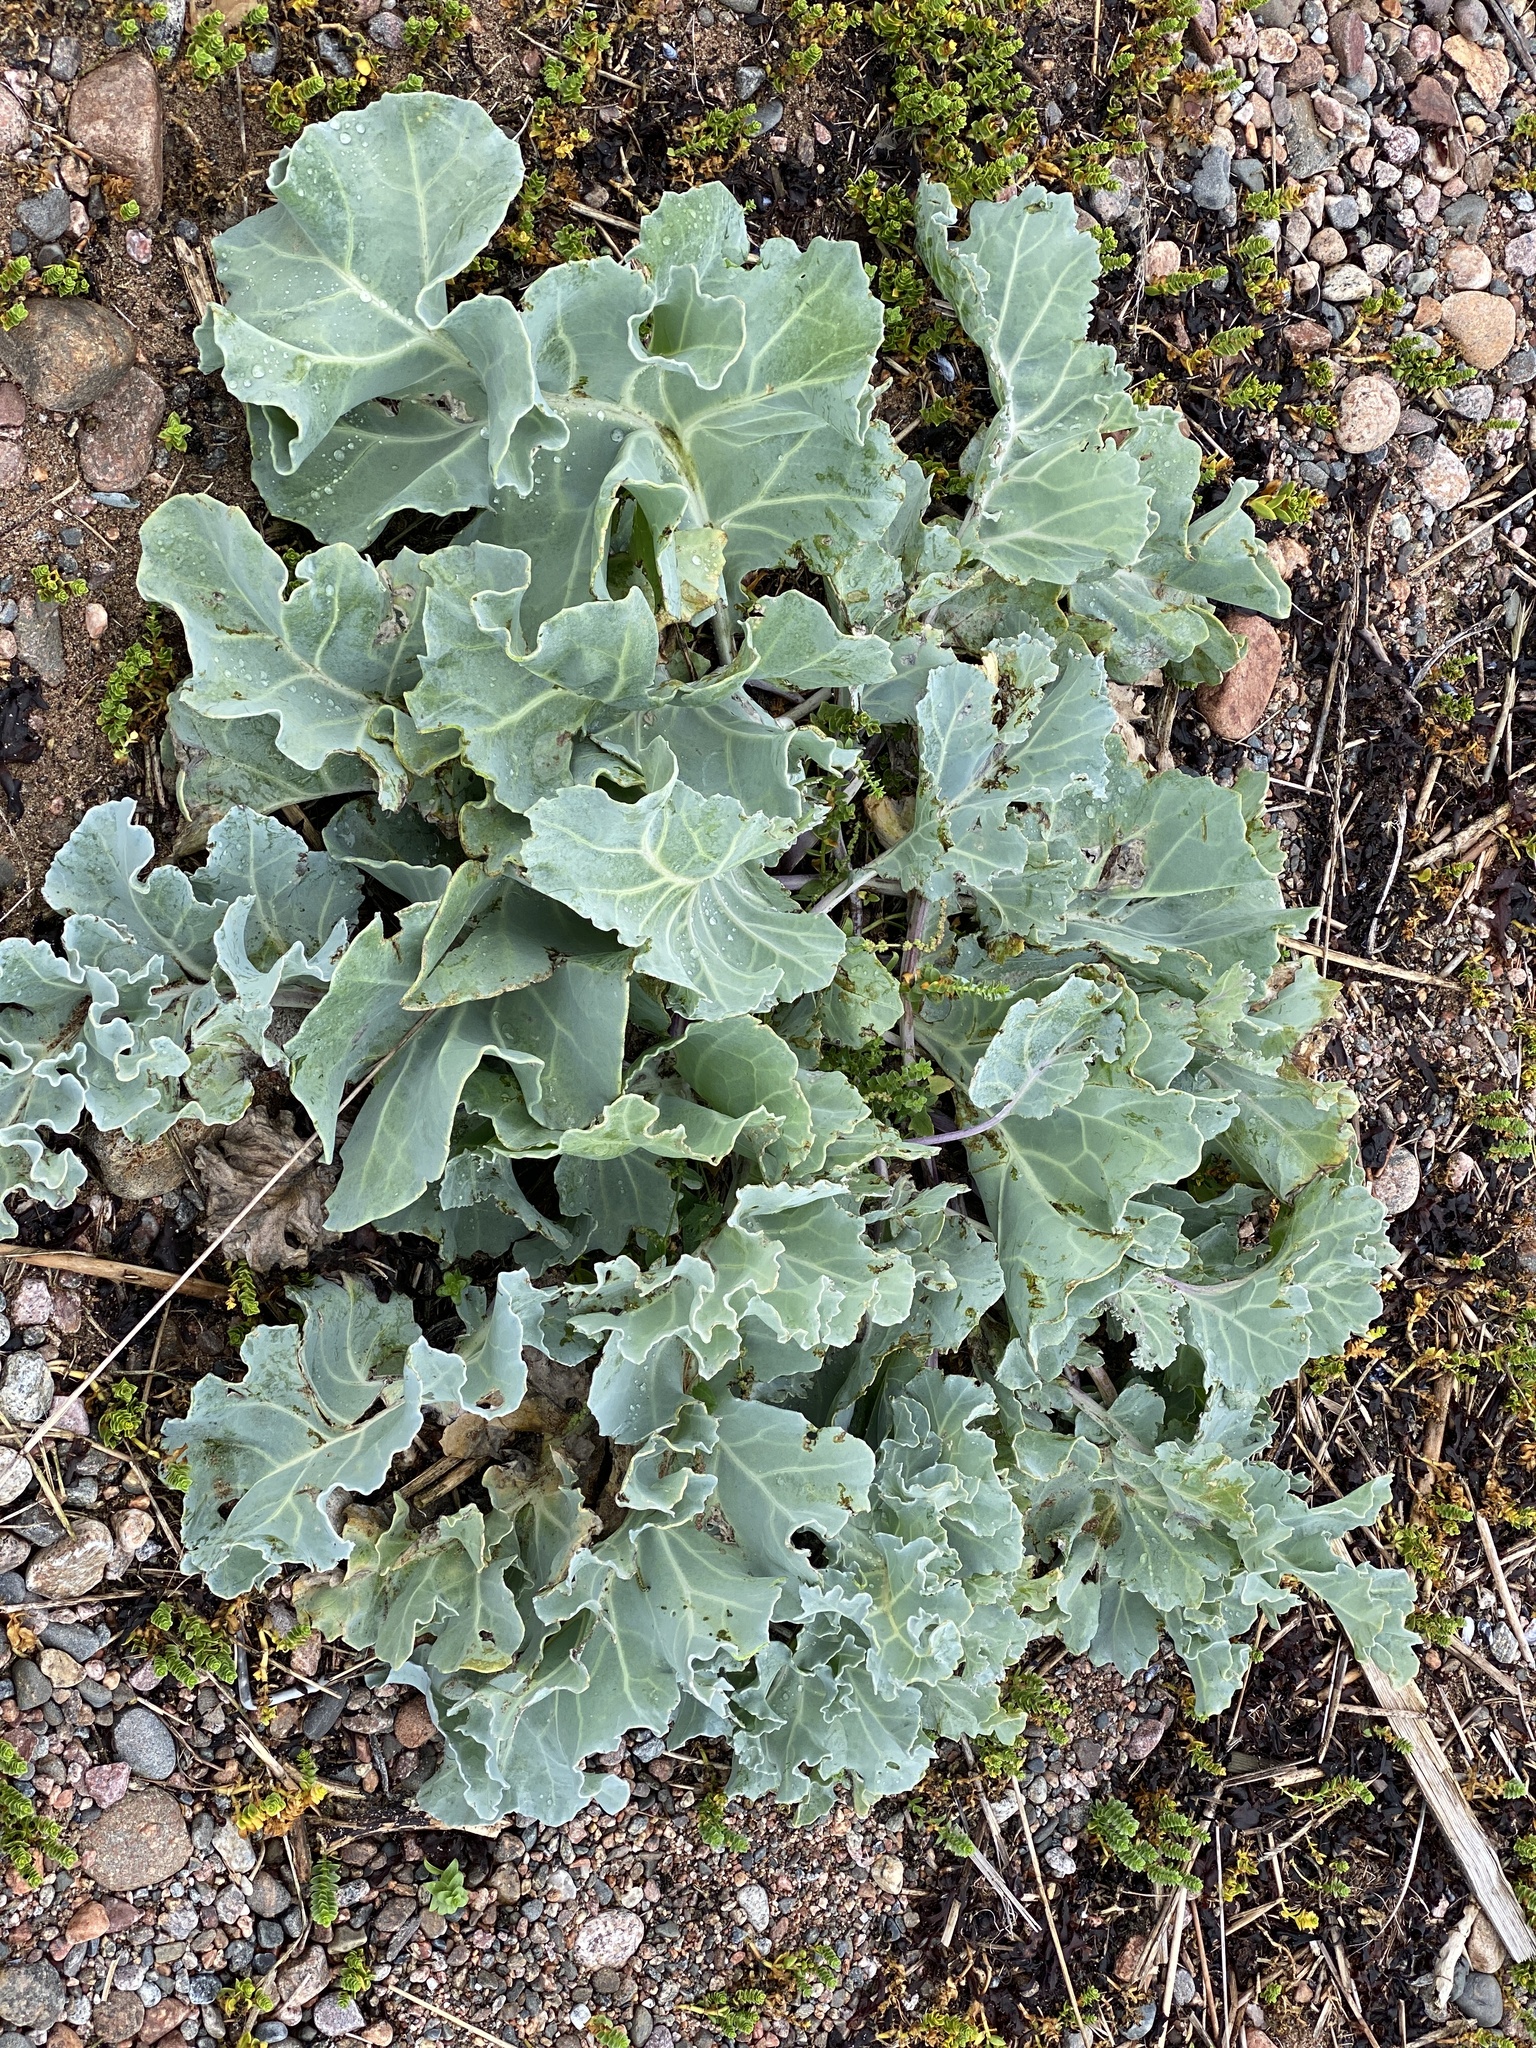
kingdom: Plantae
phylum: Tracheophyta
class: Magnoliopsida
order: Brassicales
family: Brassicaceae
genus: Crambe
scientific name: Crambe maritima
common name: Sea-kale
